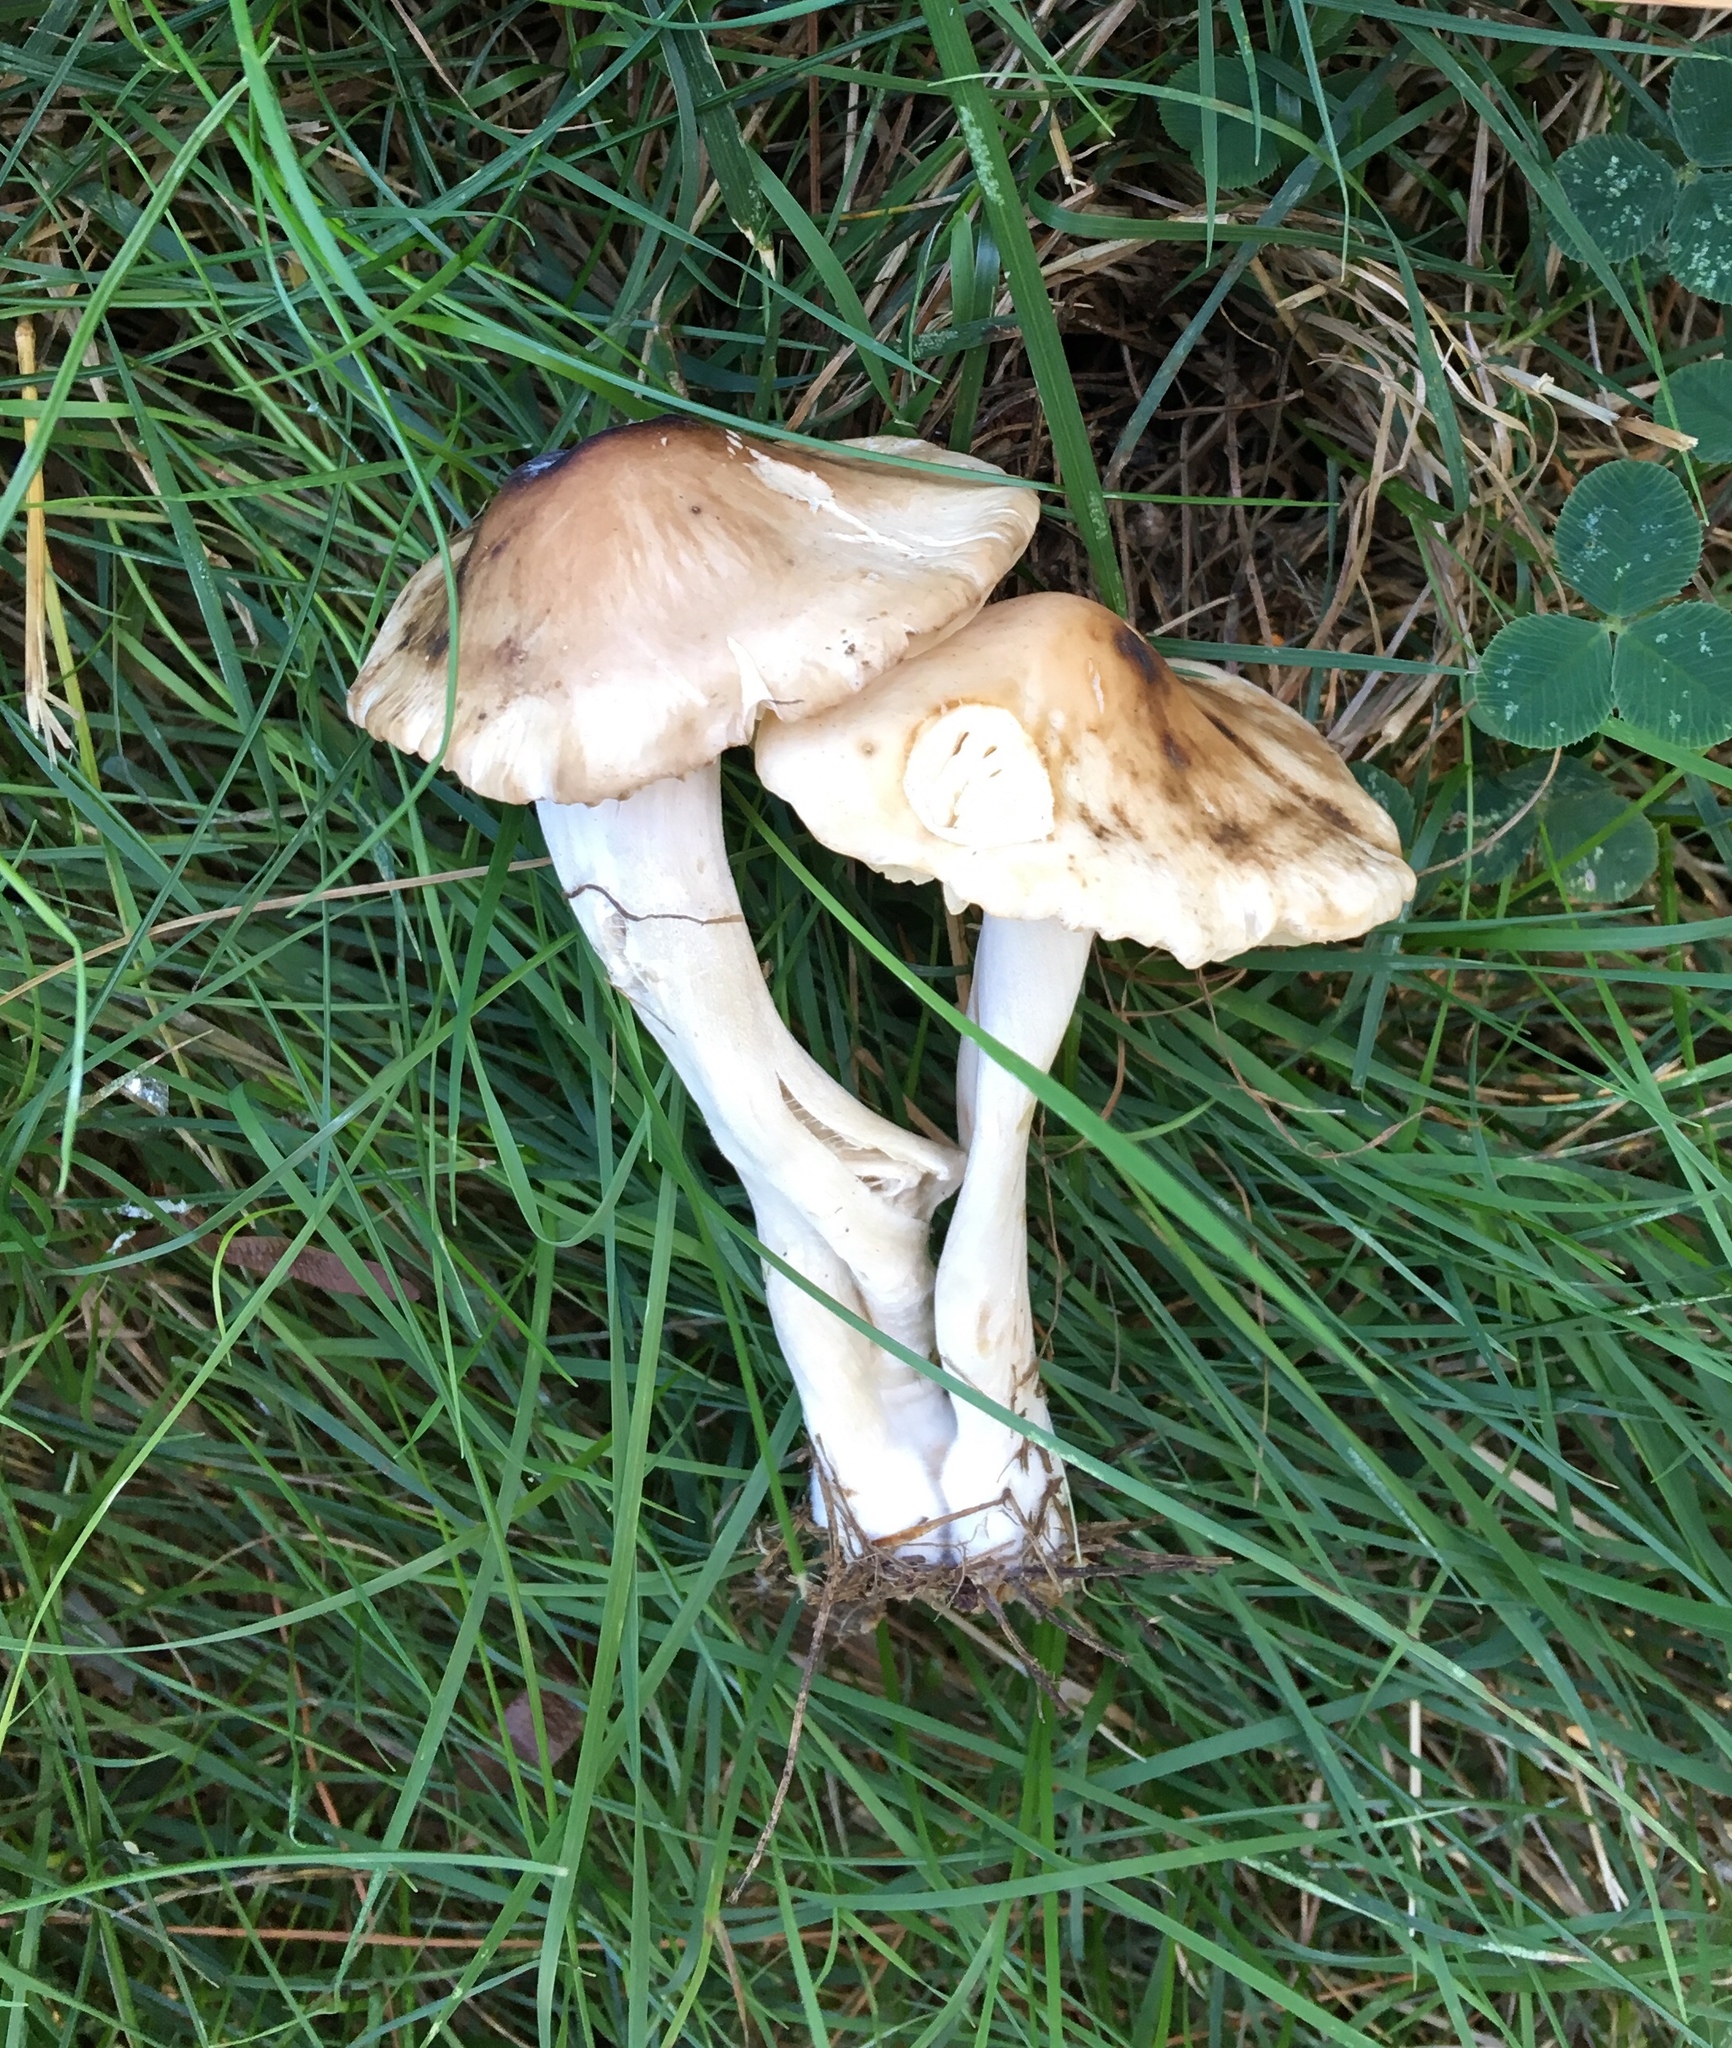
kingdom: Fungi
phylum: Basidiomycota
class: Agaricomycetes
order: Agaricales
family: Marasmiaceae
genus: Marasmius
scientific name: Marasmius nigrodiscus
